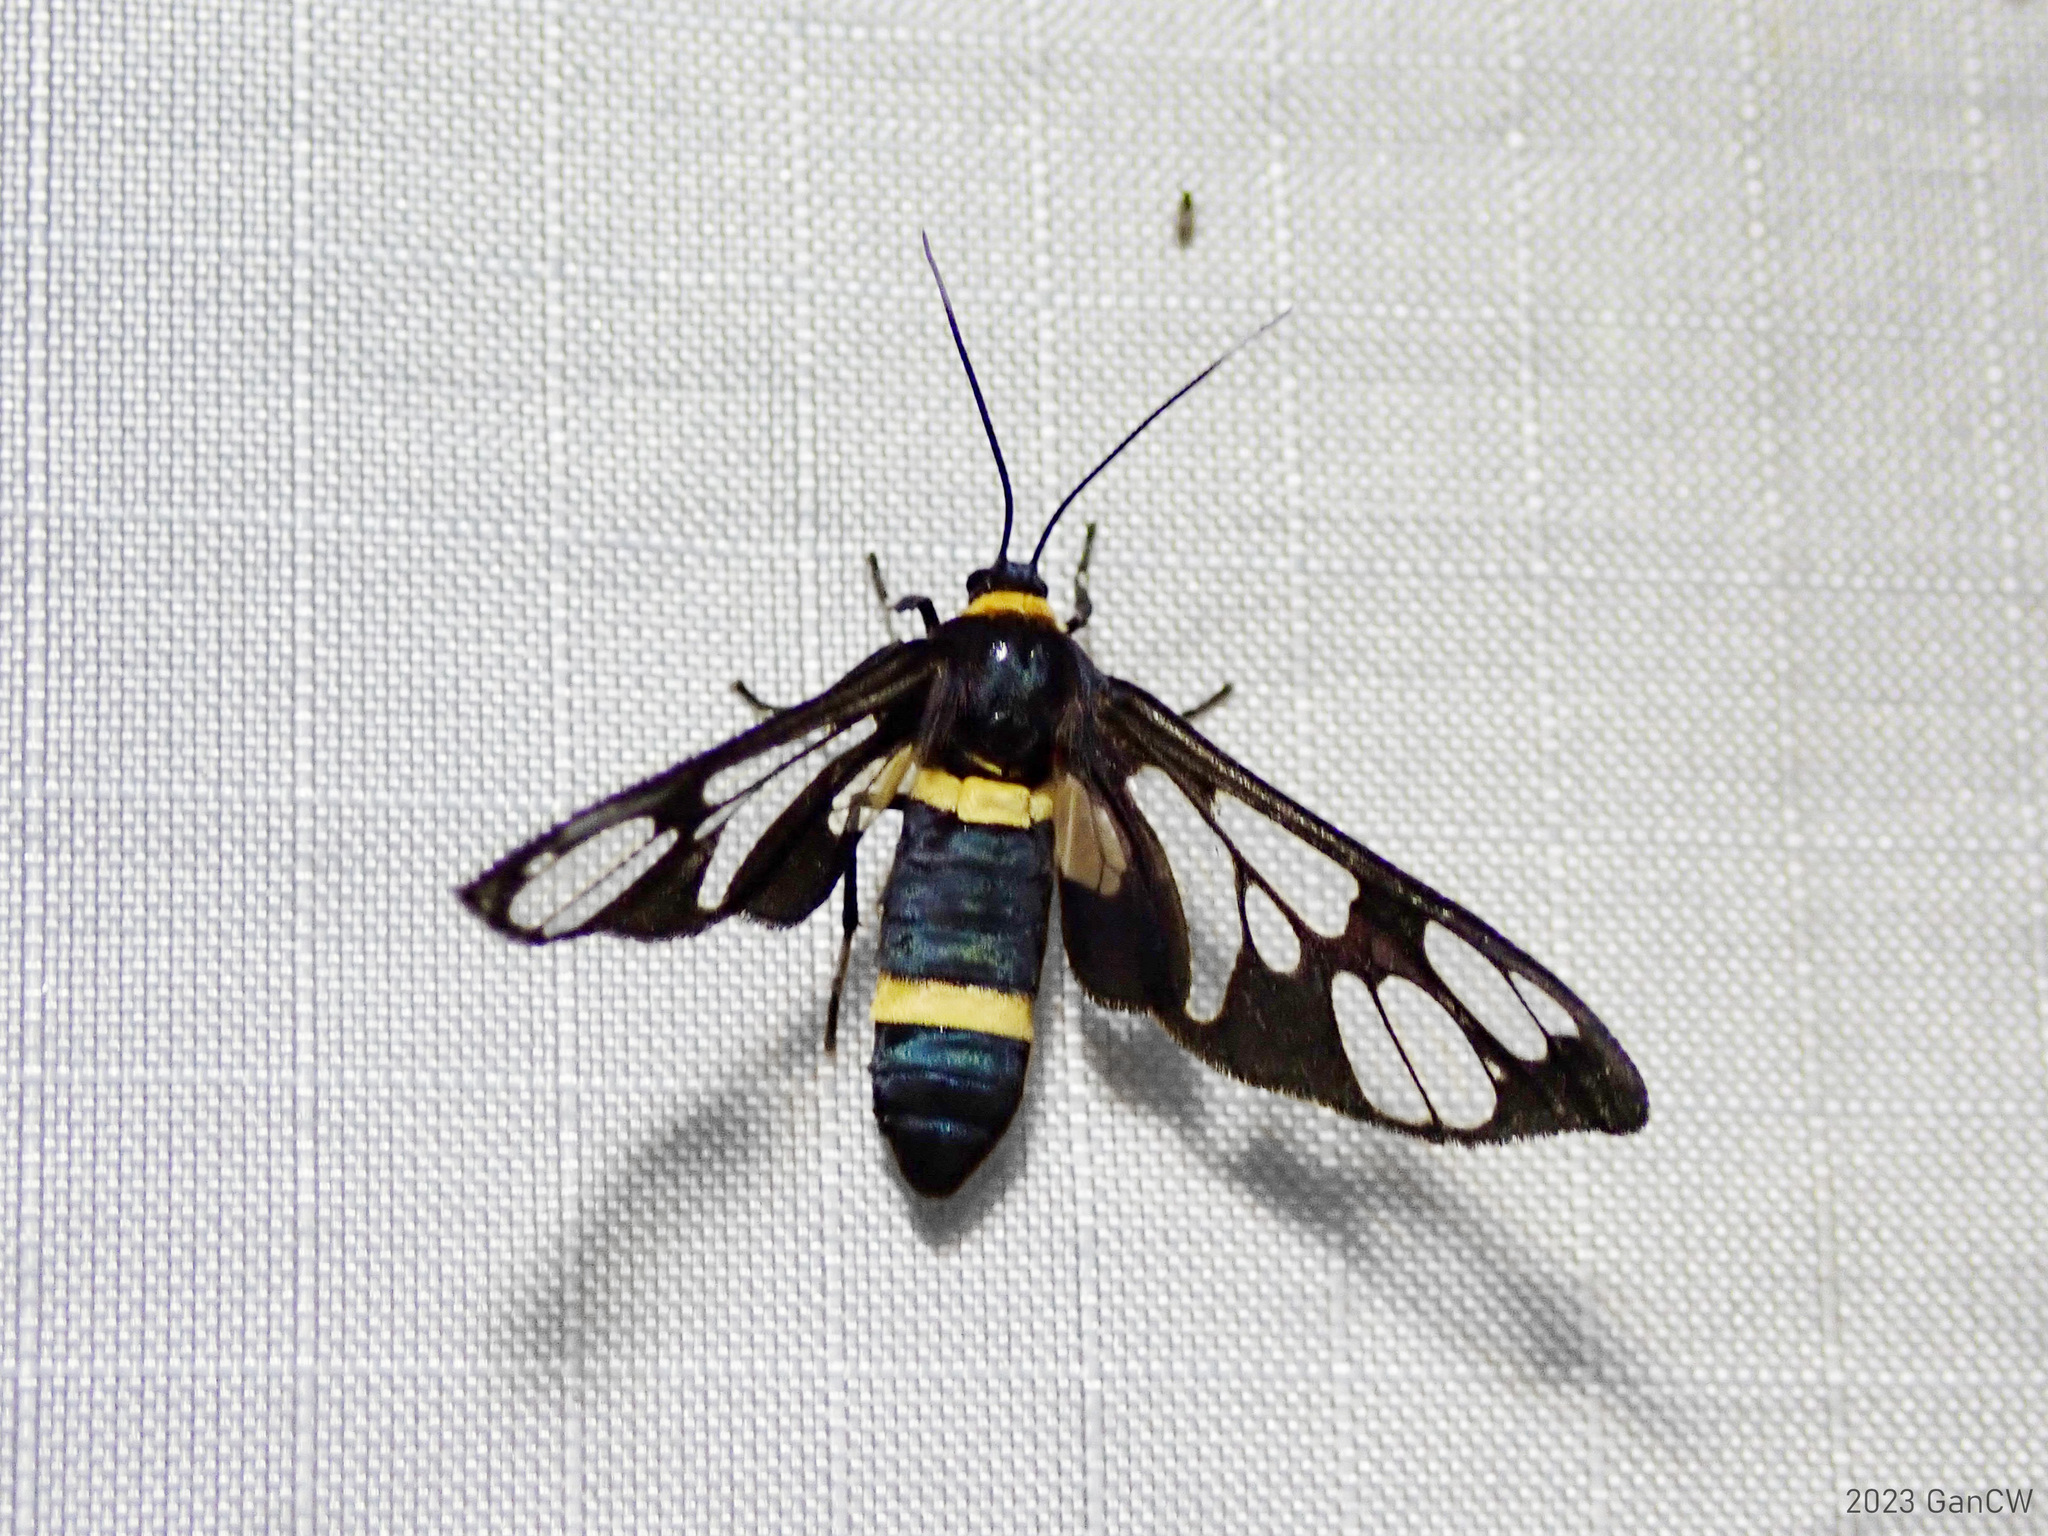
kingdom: Animalia
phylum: Arthropoda
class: Insecta
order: Lepidoptera
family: Erebidae
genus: Syntomoides
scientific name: Syntomoides imaon
